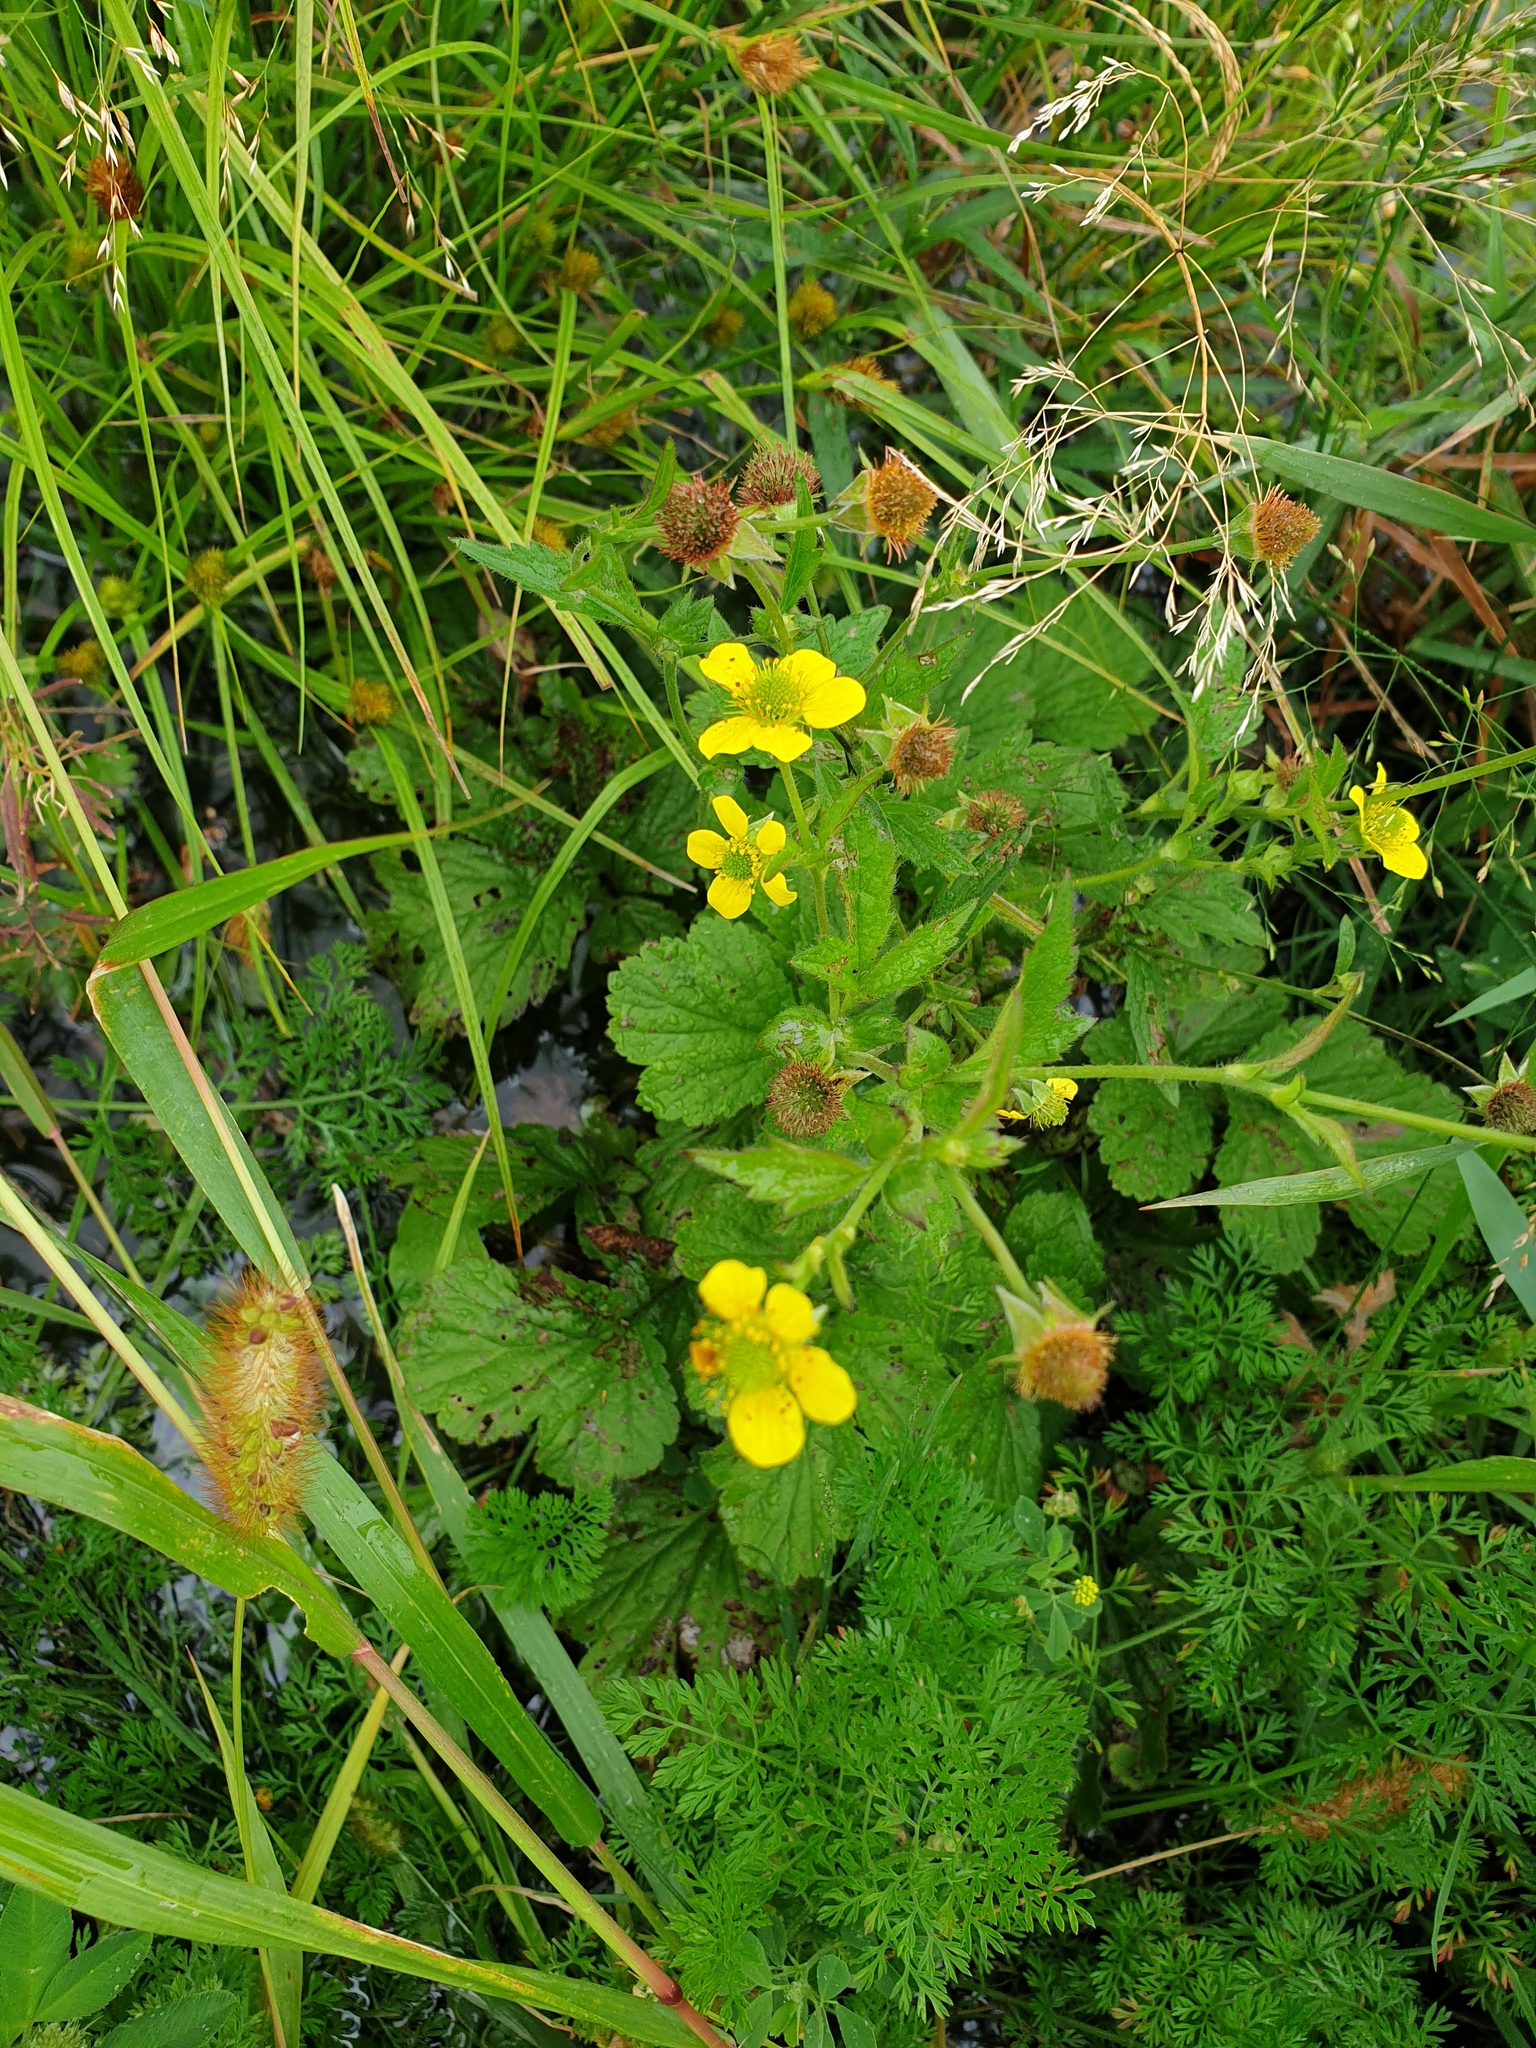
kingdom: Plantae
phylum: Tracheophyta
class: Magnoliopsida
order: Rosales
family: Rosaceae
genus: Geum
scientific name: Geum macrophyllum
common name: Large-leaved avens
